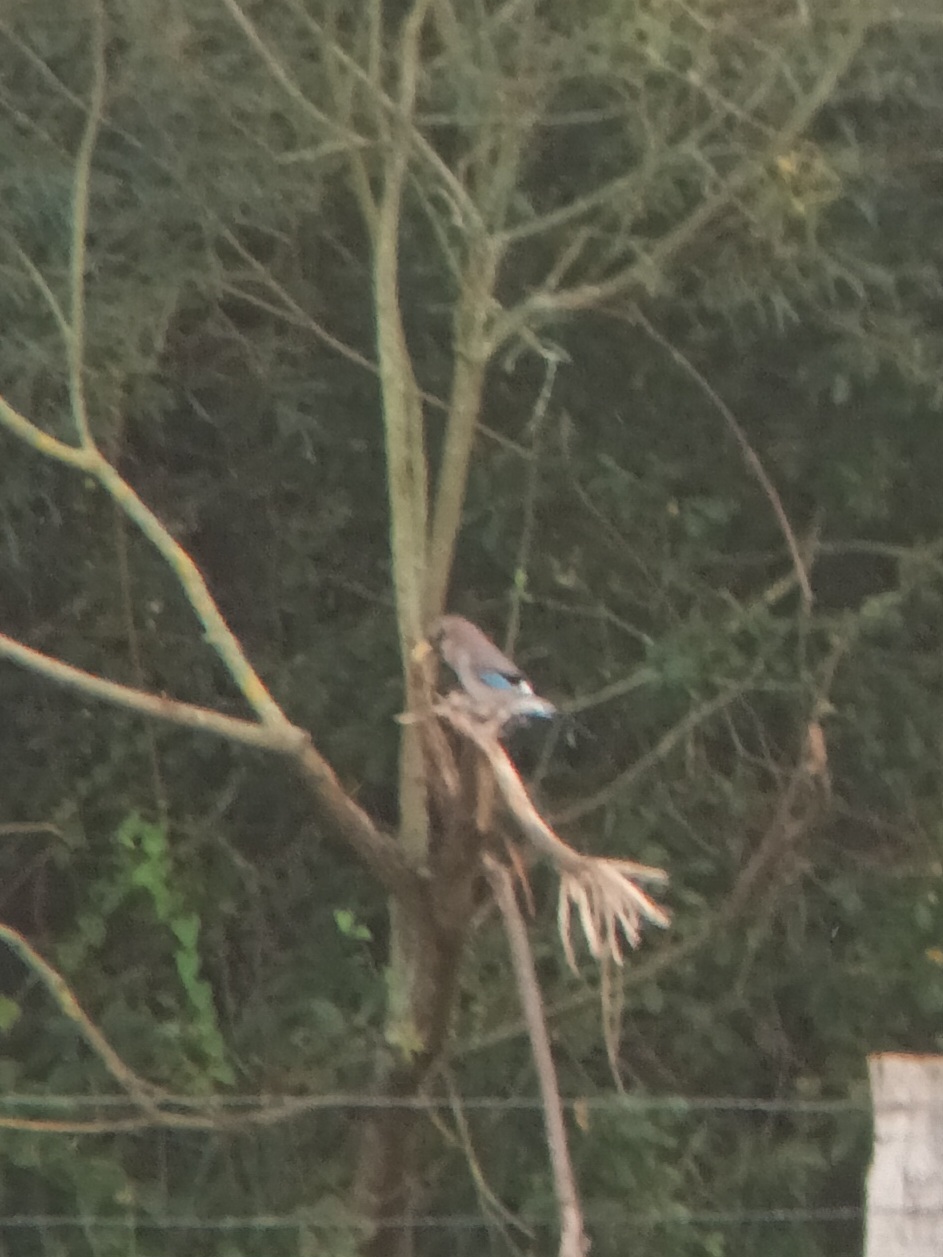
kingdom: Animalia
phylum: Chordata
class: Aves
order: Passeriformes
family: Corvidae
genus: Garrulus
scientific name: Garrulus glandarius
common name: Eurasian jay
